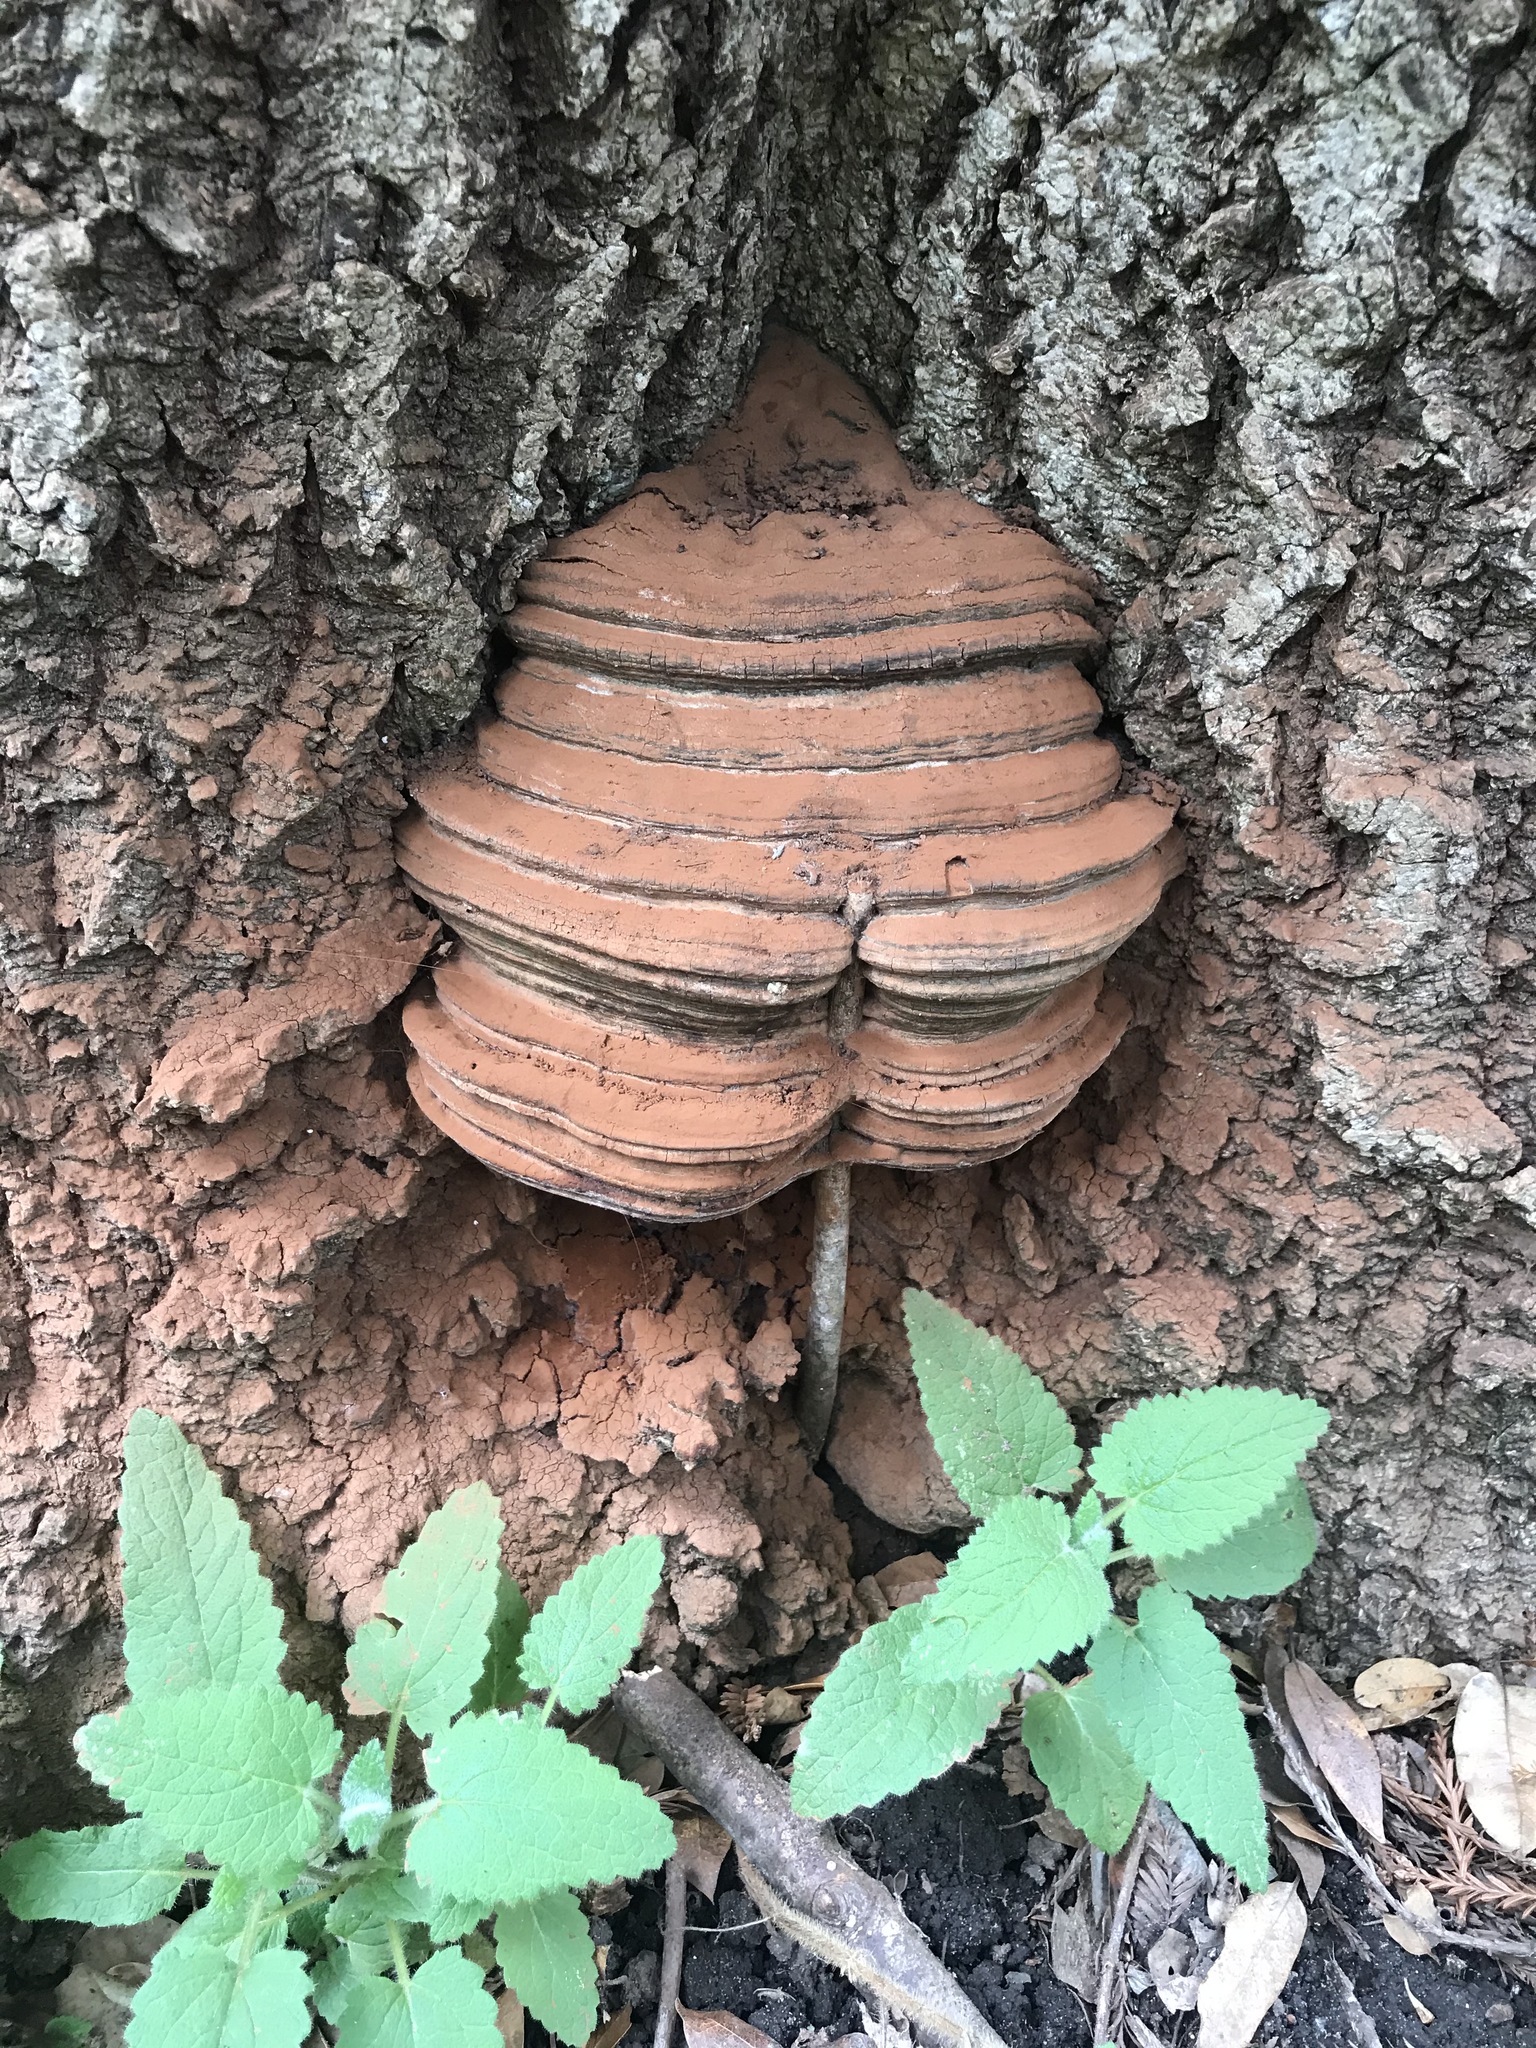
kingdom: Fungi
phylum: Basidiomycota
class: Agaricomycetes
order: Polyporales
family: Polyporaceae
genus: Ganoderma
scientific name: Ganoderma brownii
